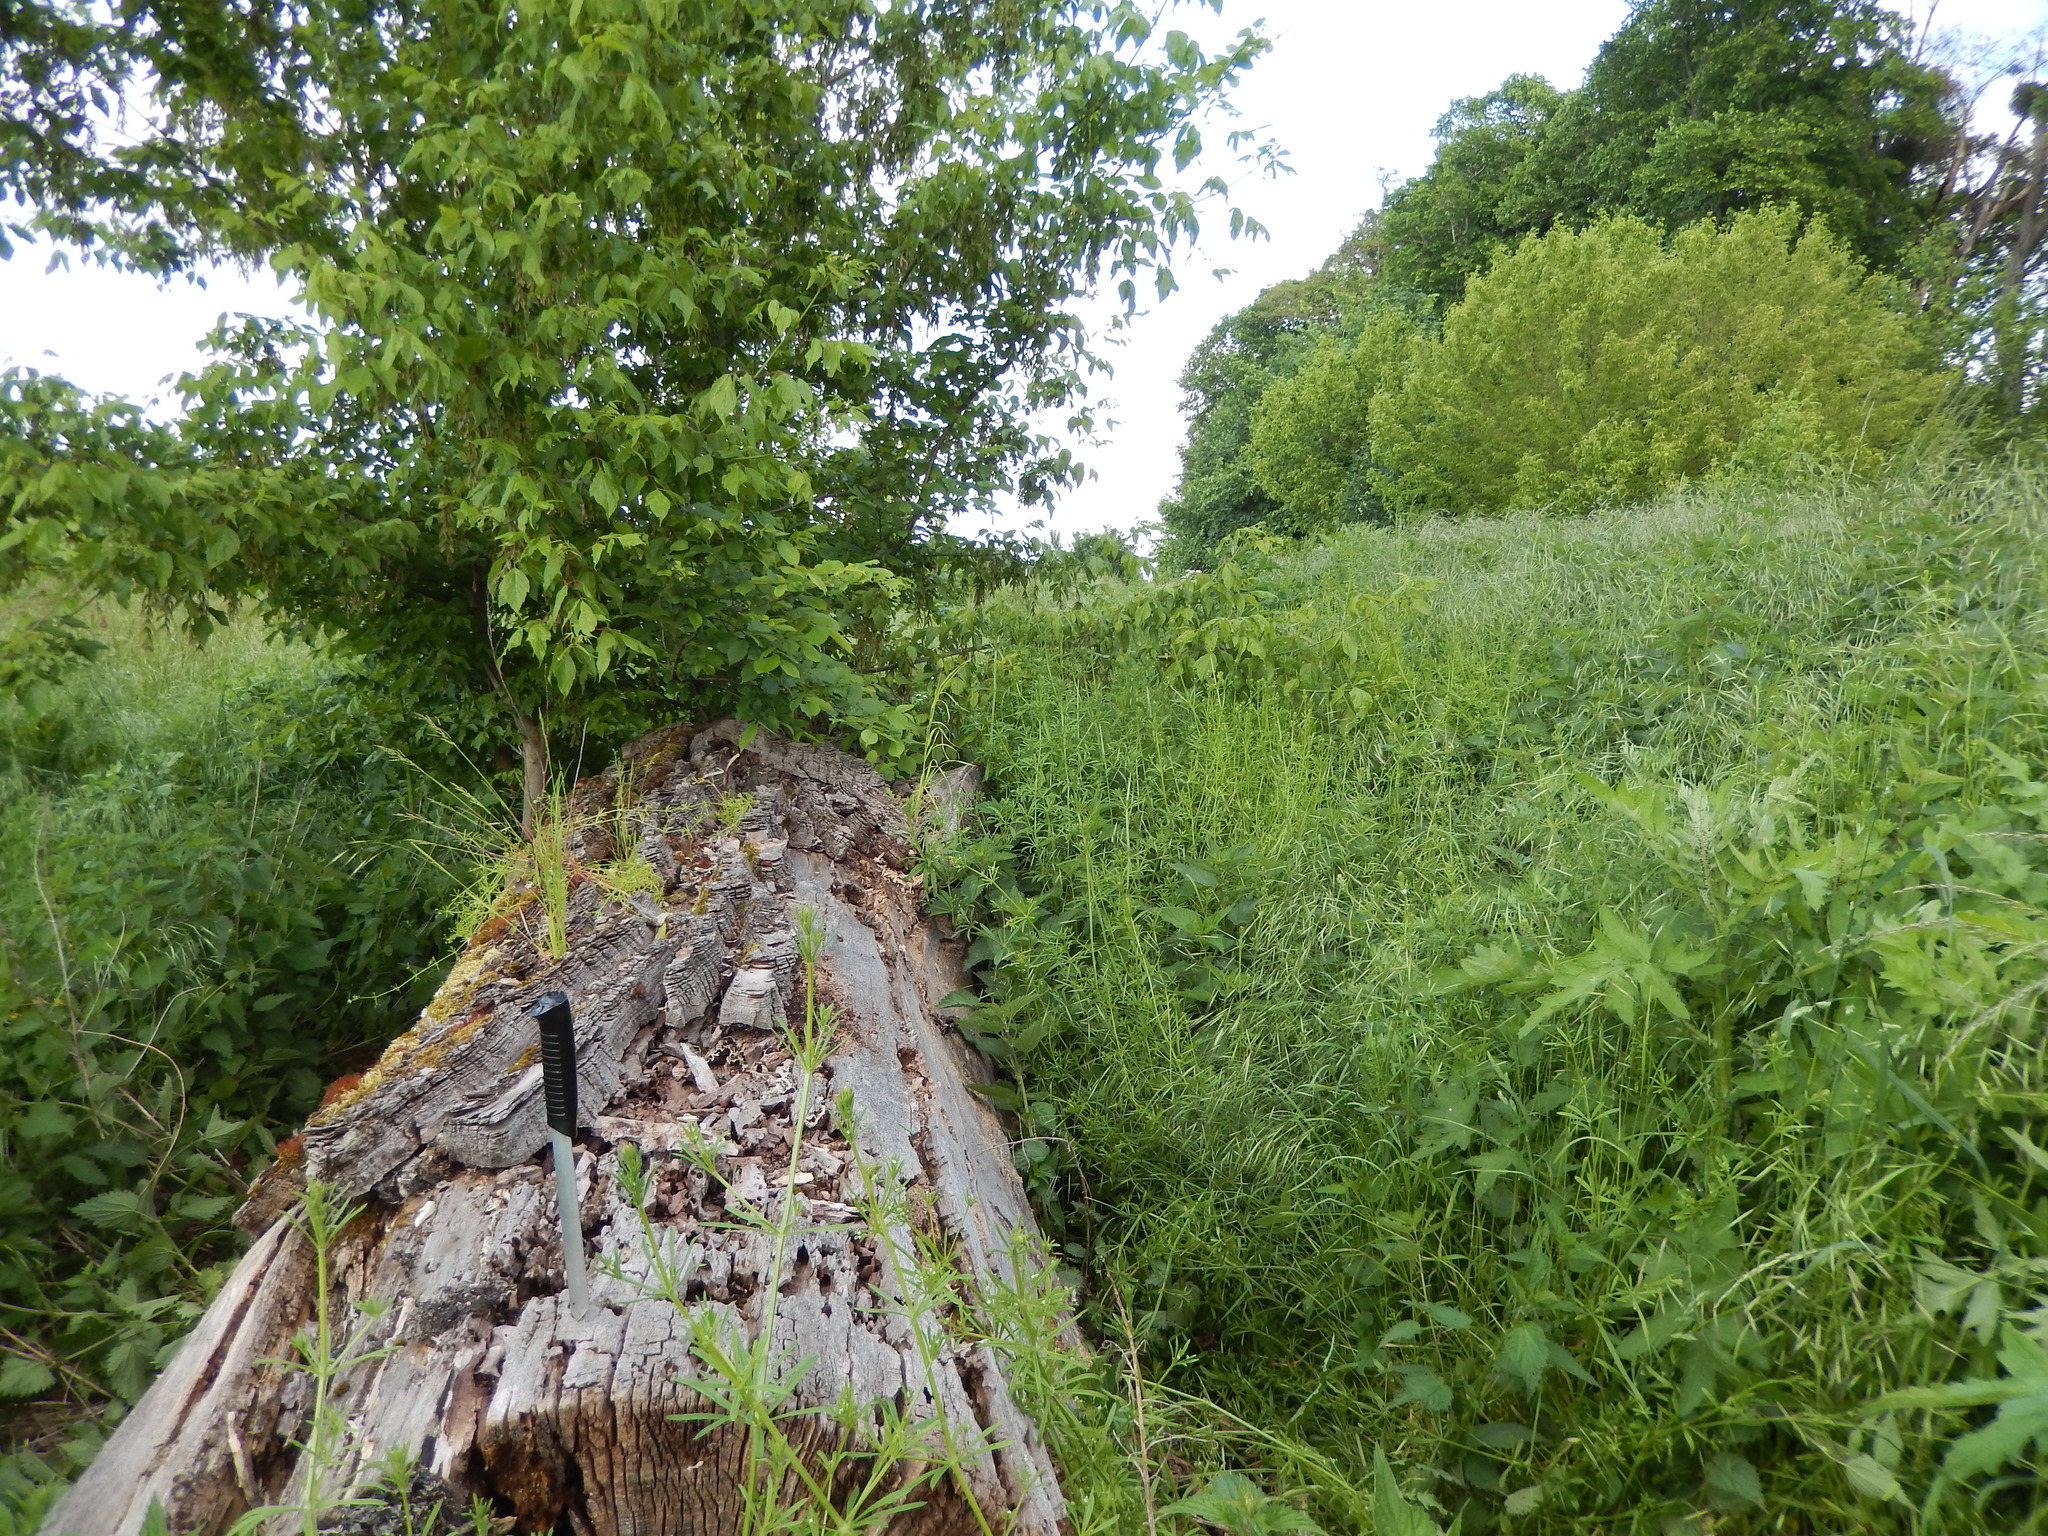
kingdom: Animalia
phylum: Arthropoda
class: Insecta
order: Hymenoptera
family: Formicidae
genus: Camponotus
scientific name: Camponotus vagus
